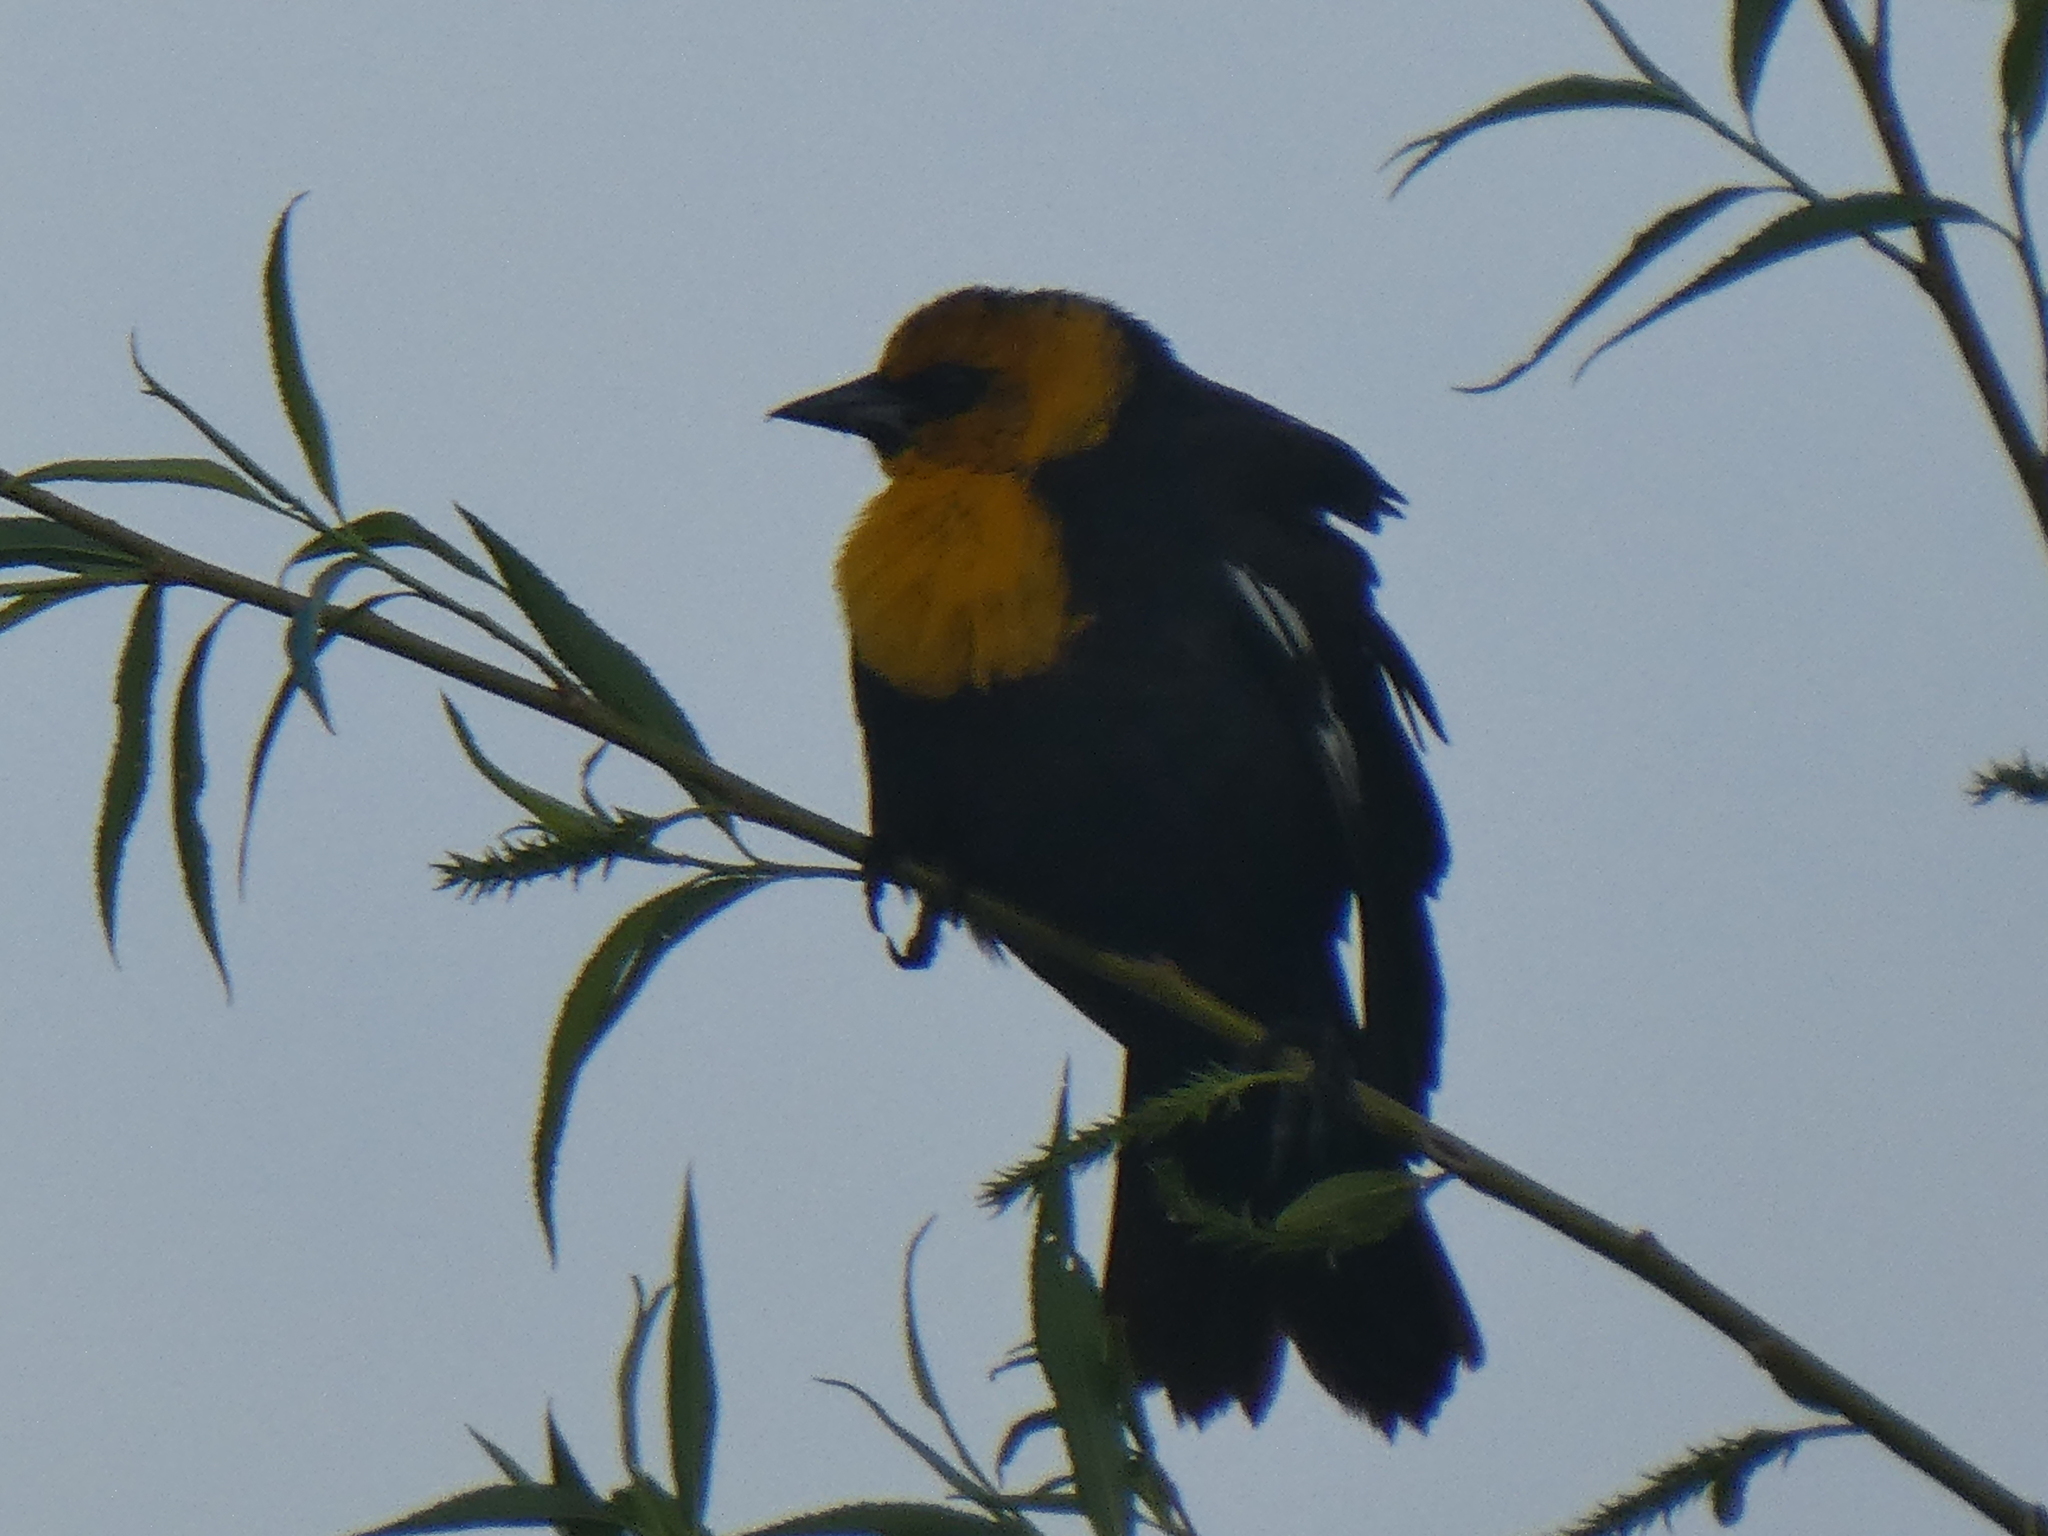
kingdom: Animalia
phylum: Chordata
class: Aves
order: Passeriformes
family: Icteridae
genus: Xanthocephalus
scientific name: Xanthocephalus xanthocephalus
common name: Yellow-headed blackbird
